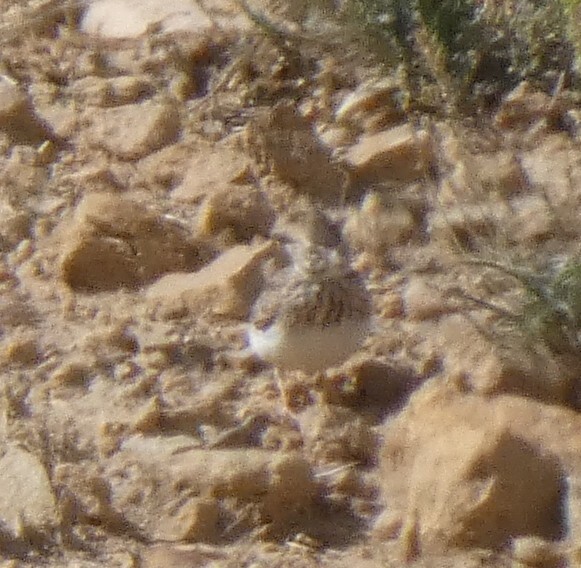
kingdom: Animalia
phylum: Chordata
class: Aves
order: Passeriformes
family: Alaudidae
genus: Galerida
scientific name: Galerida theklae
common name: Thekla lark
